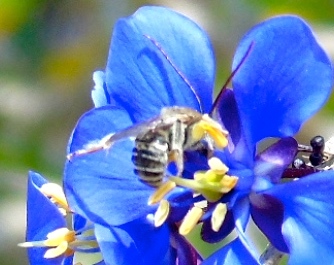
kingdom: Animalia
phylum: Arthropoda
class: Insecta
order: Hymenoptera
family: Apidae
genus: Apidae
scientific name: Apidae
